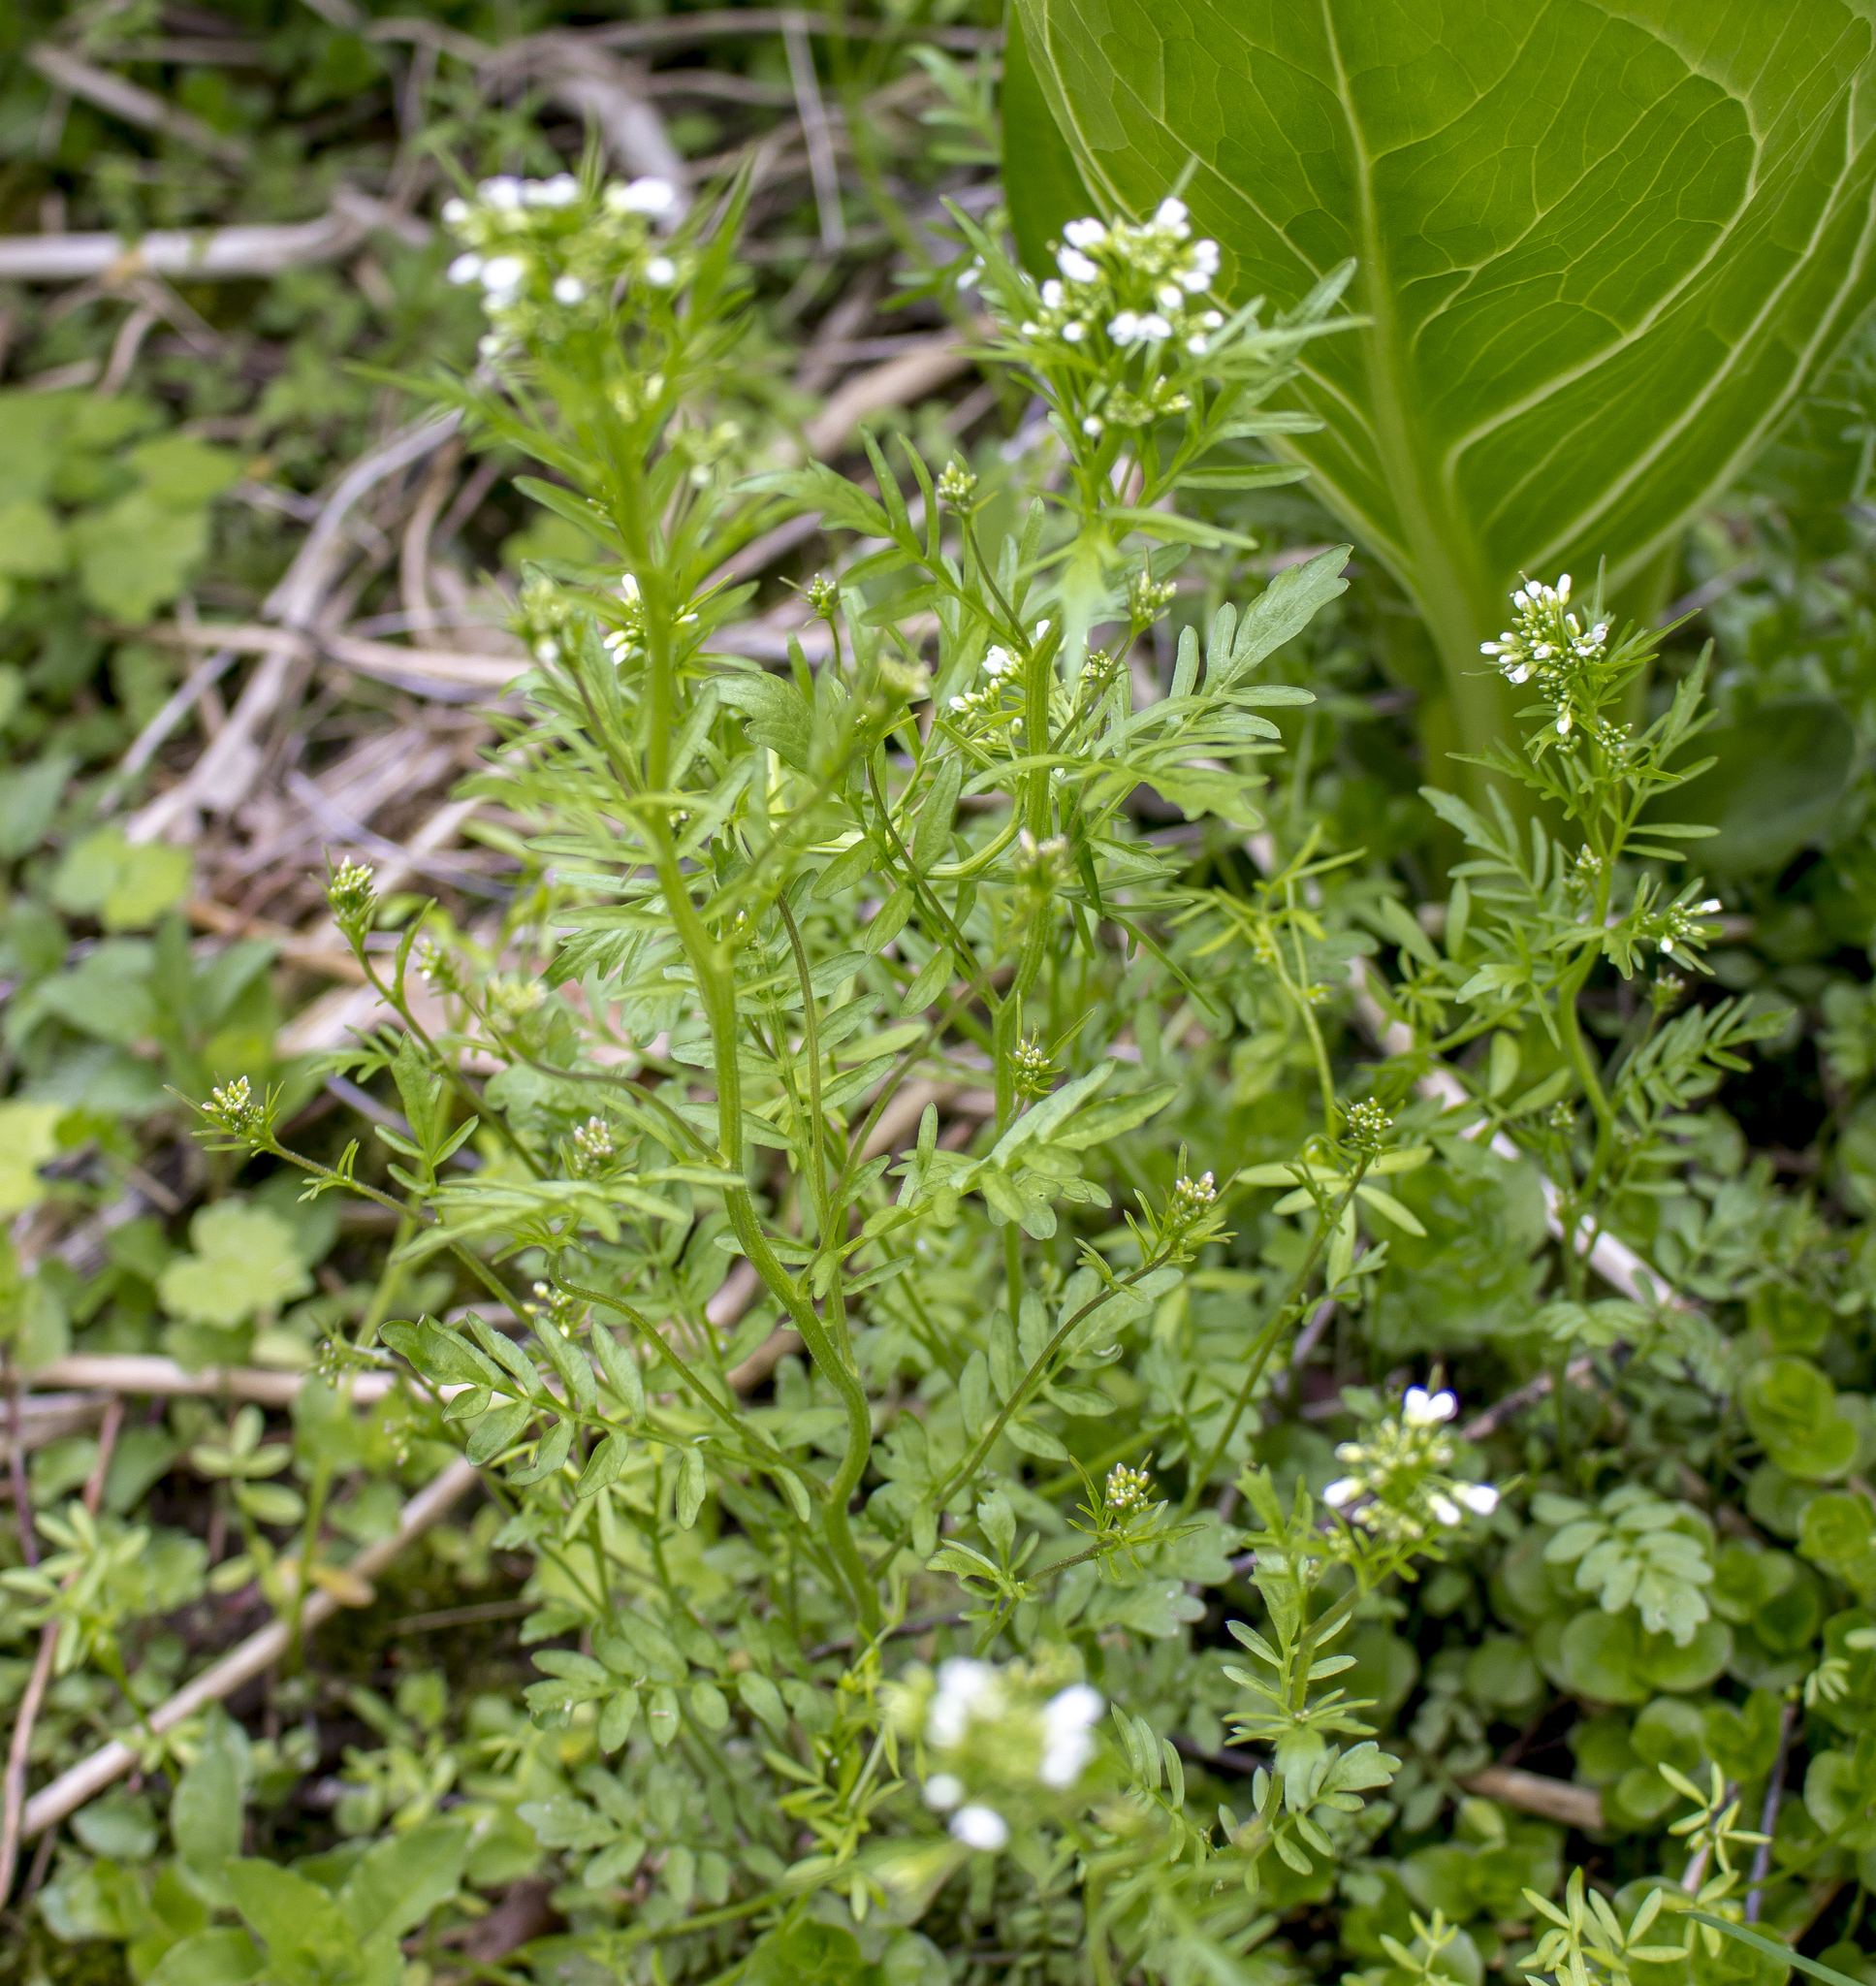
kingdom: Plantae
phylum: Tracheophyta
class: Magnoliopsida
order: Brassicales
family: Brassicaceae
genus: Cardamine
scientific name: Cardamine pensylvanica
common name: Pennsylvania bittercress
